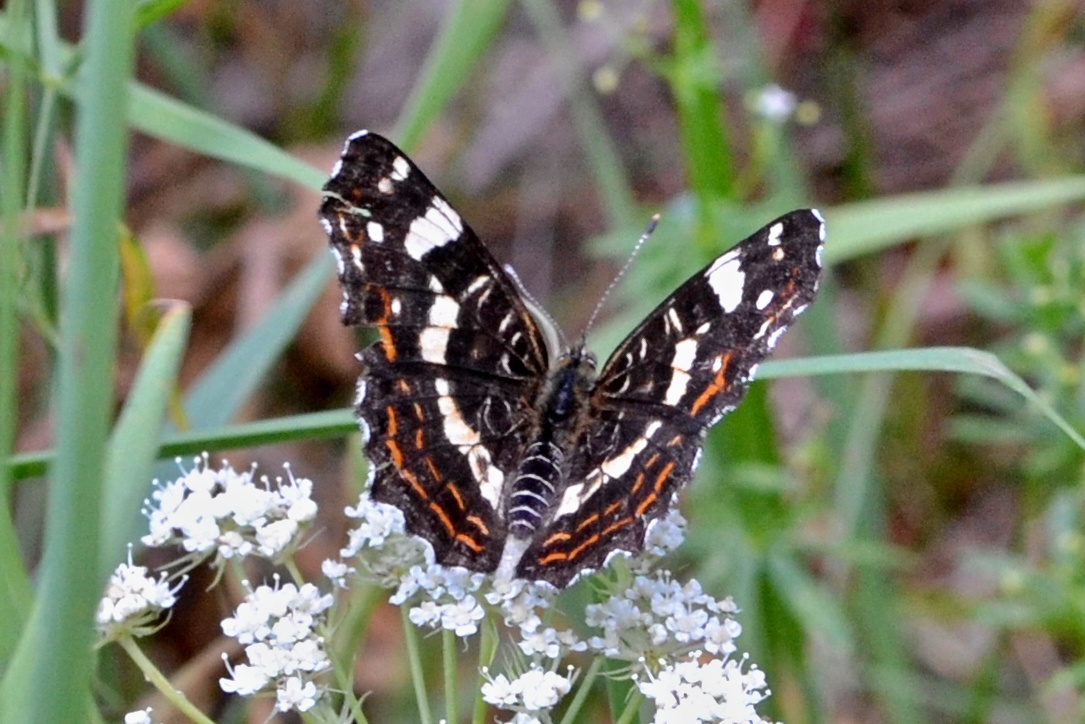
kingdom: Animalia
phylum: Arthropoda
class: Insecta
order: Lepidoptera
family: Nymphalidae
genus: Araschnia
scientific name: Araschnia levana
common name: Map butterfly
